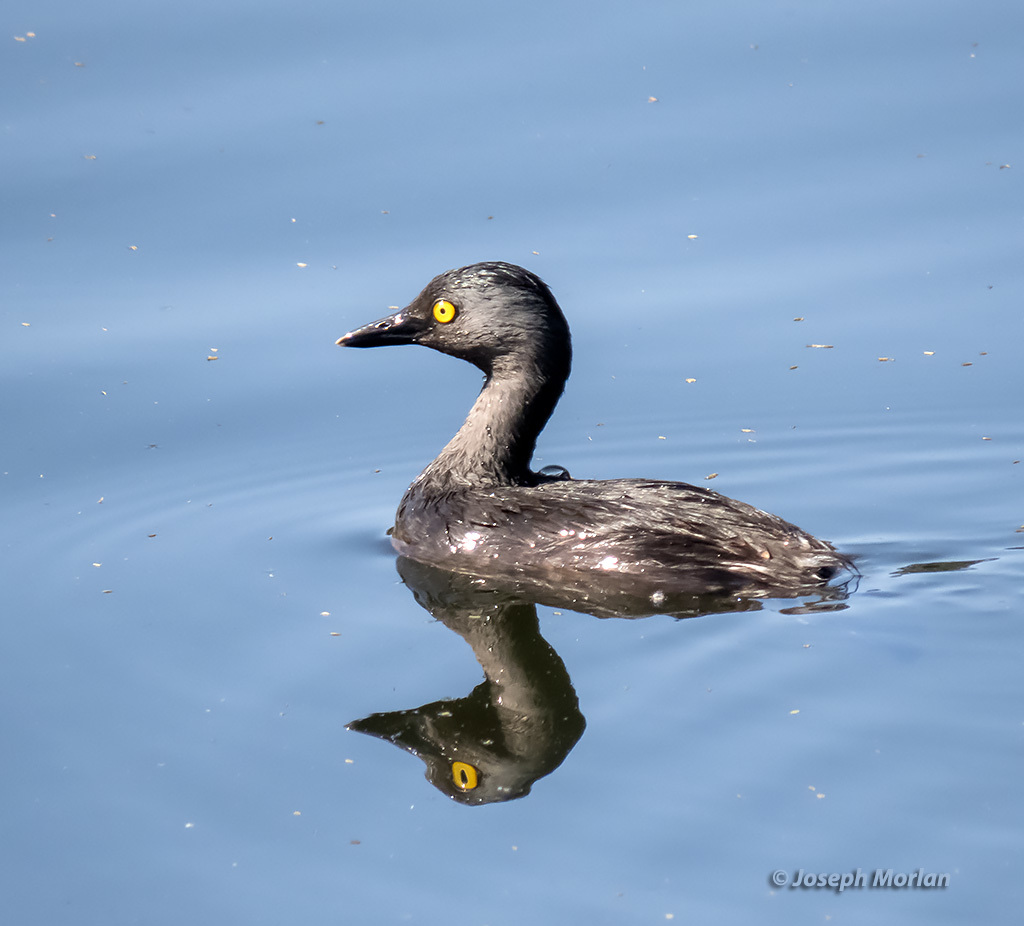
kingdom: Animalia
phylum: Chordata
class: Aves
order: Podicipediformes
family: Podicipedidae
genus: Tachybaptus
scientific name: Tachybaptus dominicus
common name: Least grebe
